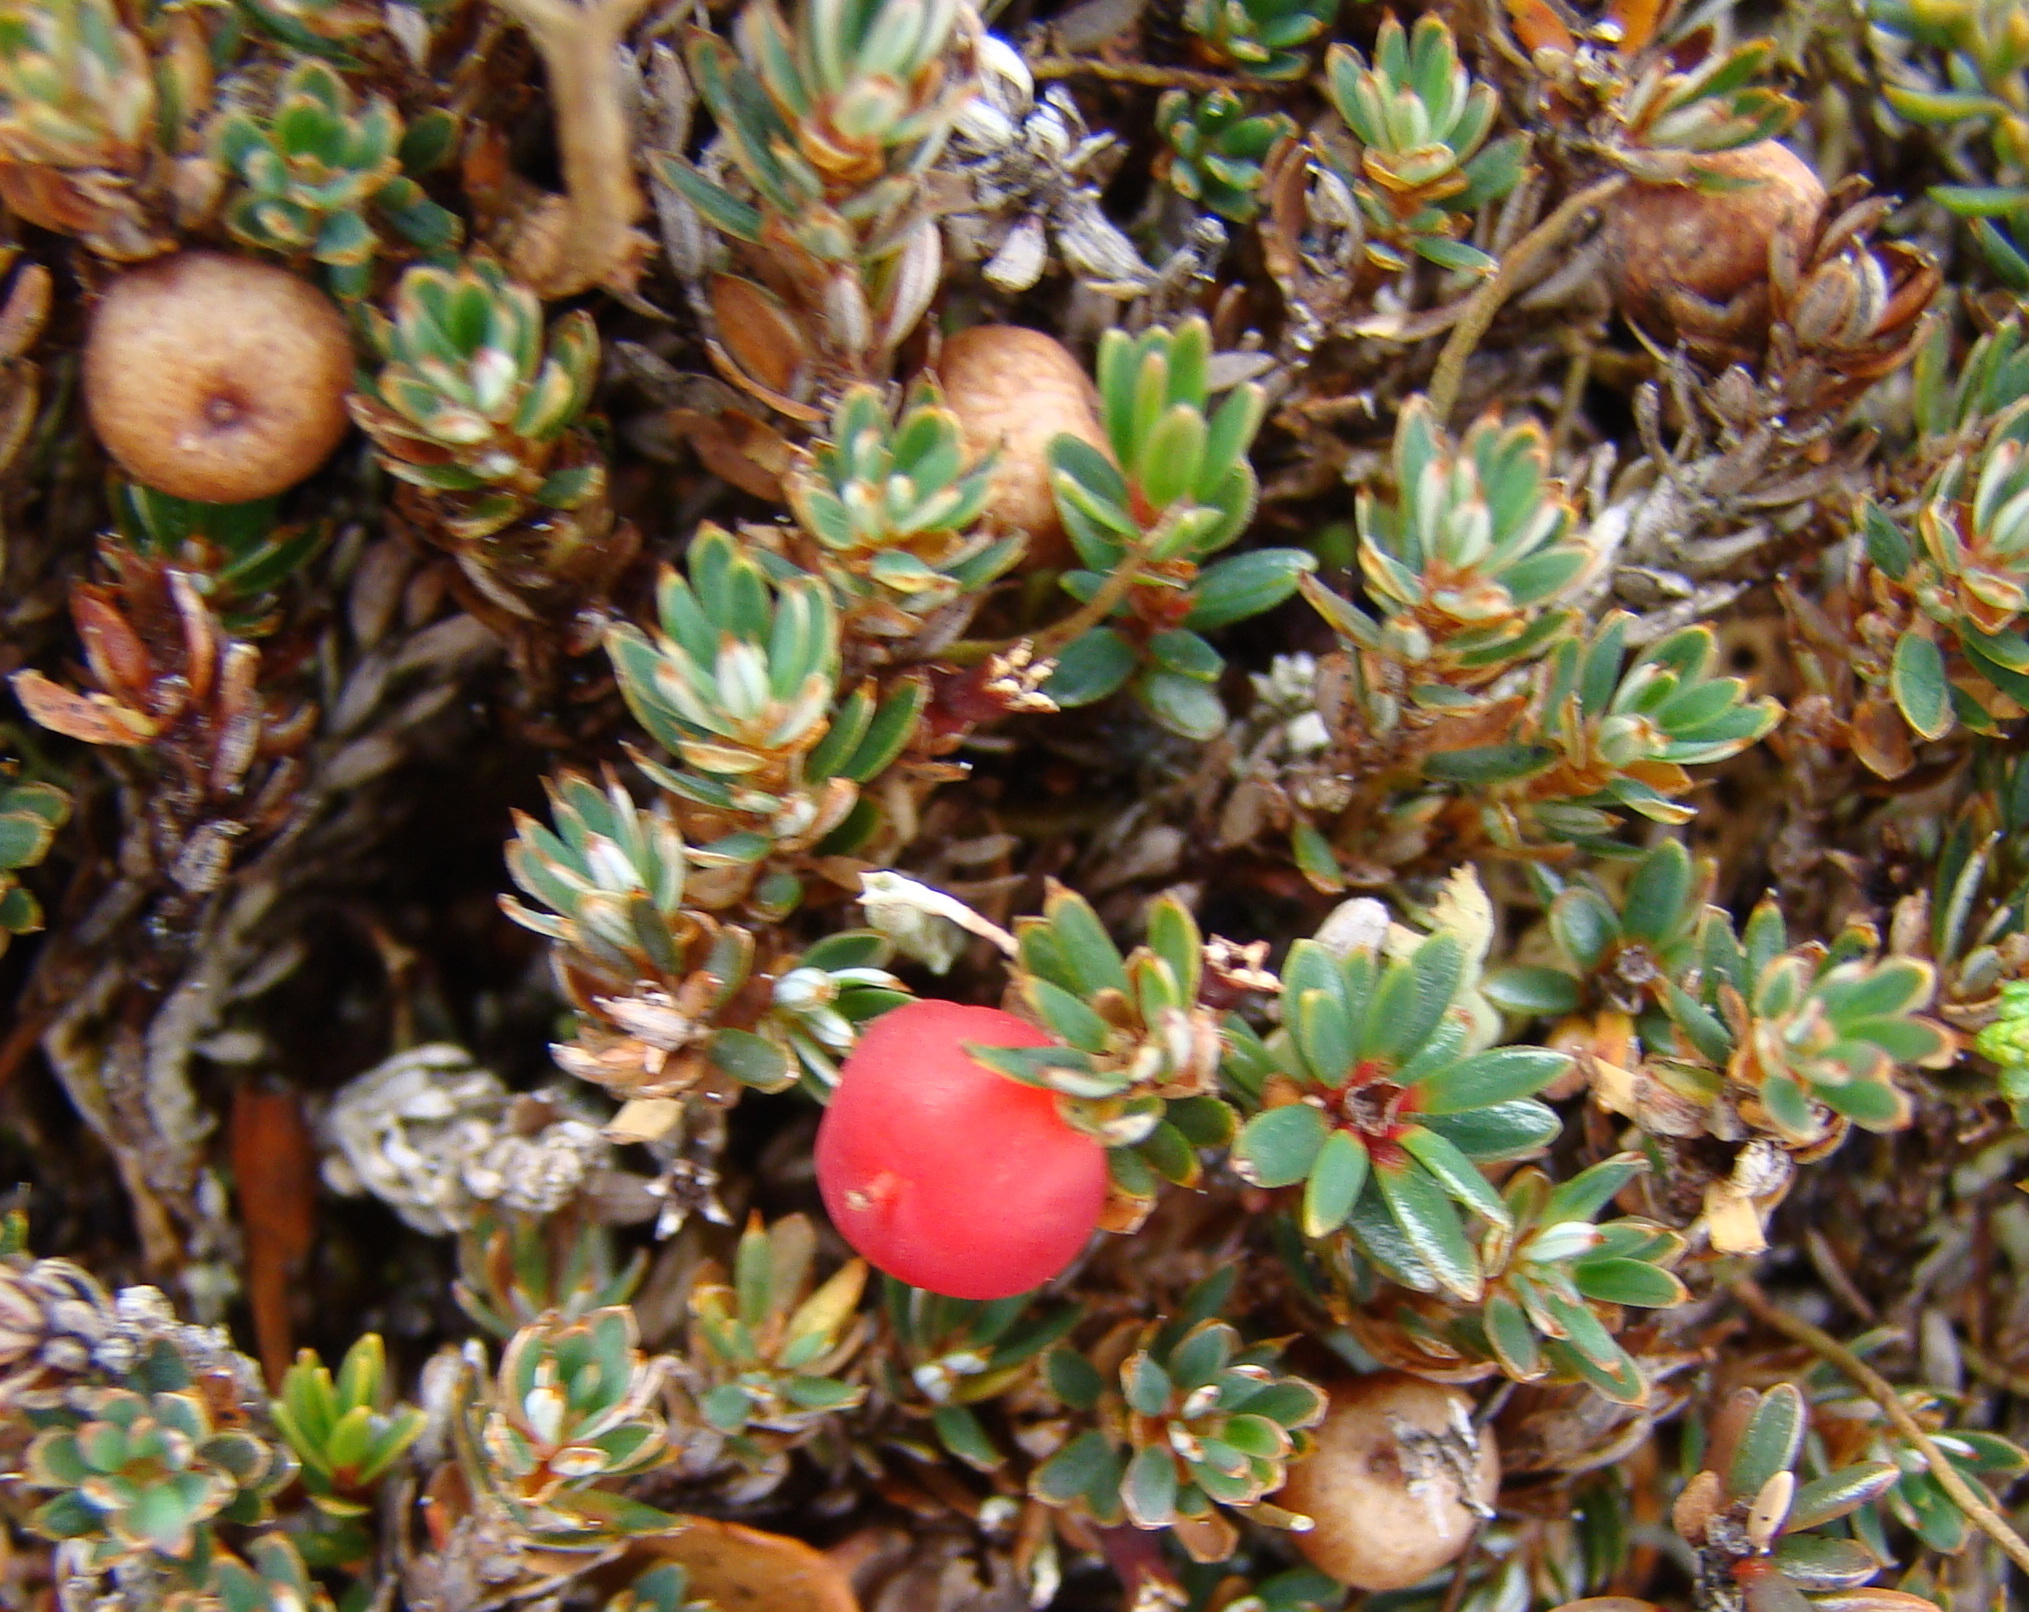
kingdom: Plantae
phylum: Tracheophyta
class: Magnoliopsida
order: Ericales
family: Ericaceae
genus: Pentachondra
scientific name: Pentachondra pumila
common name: Carpet-heath
